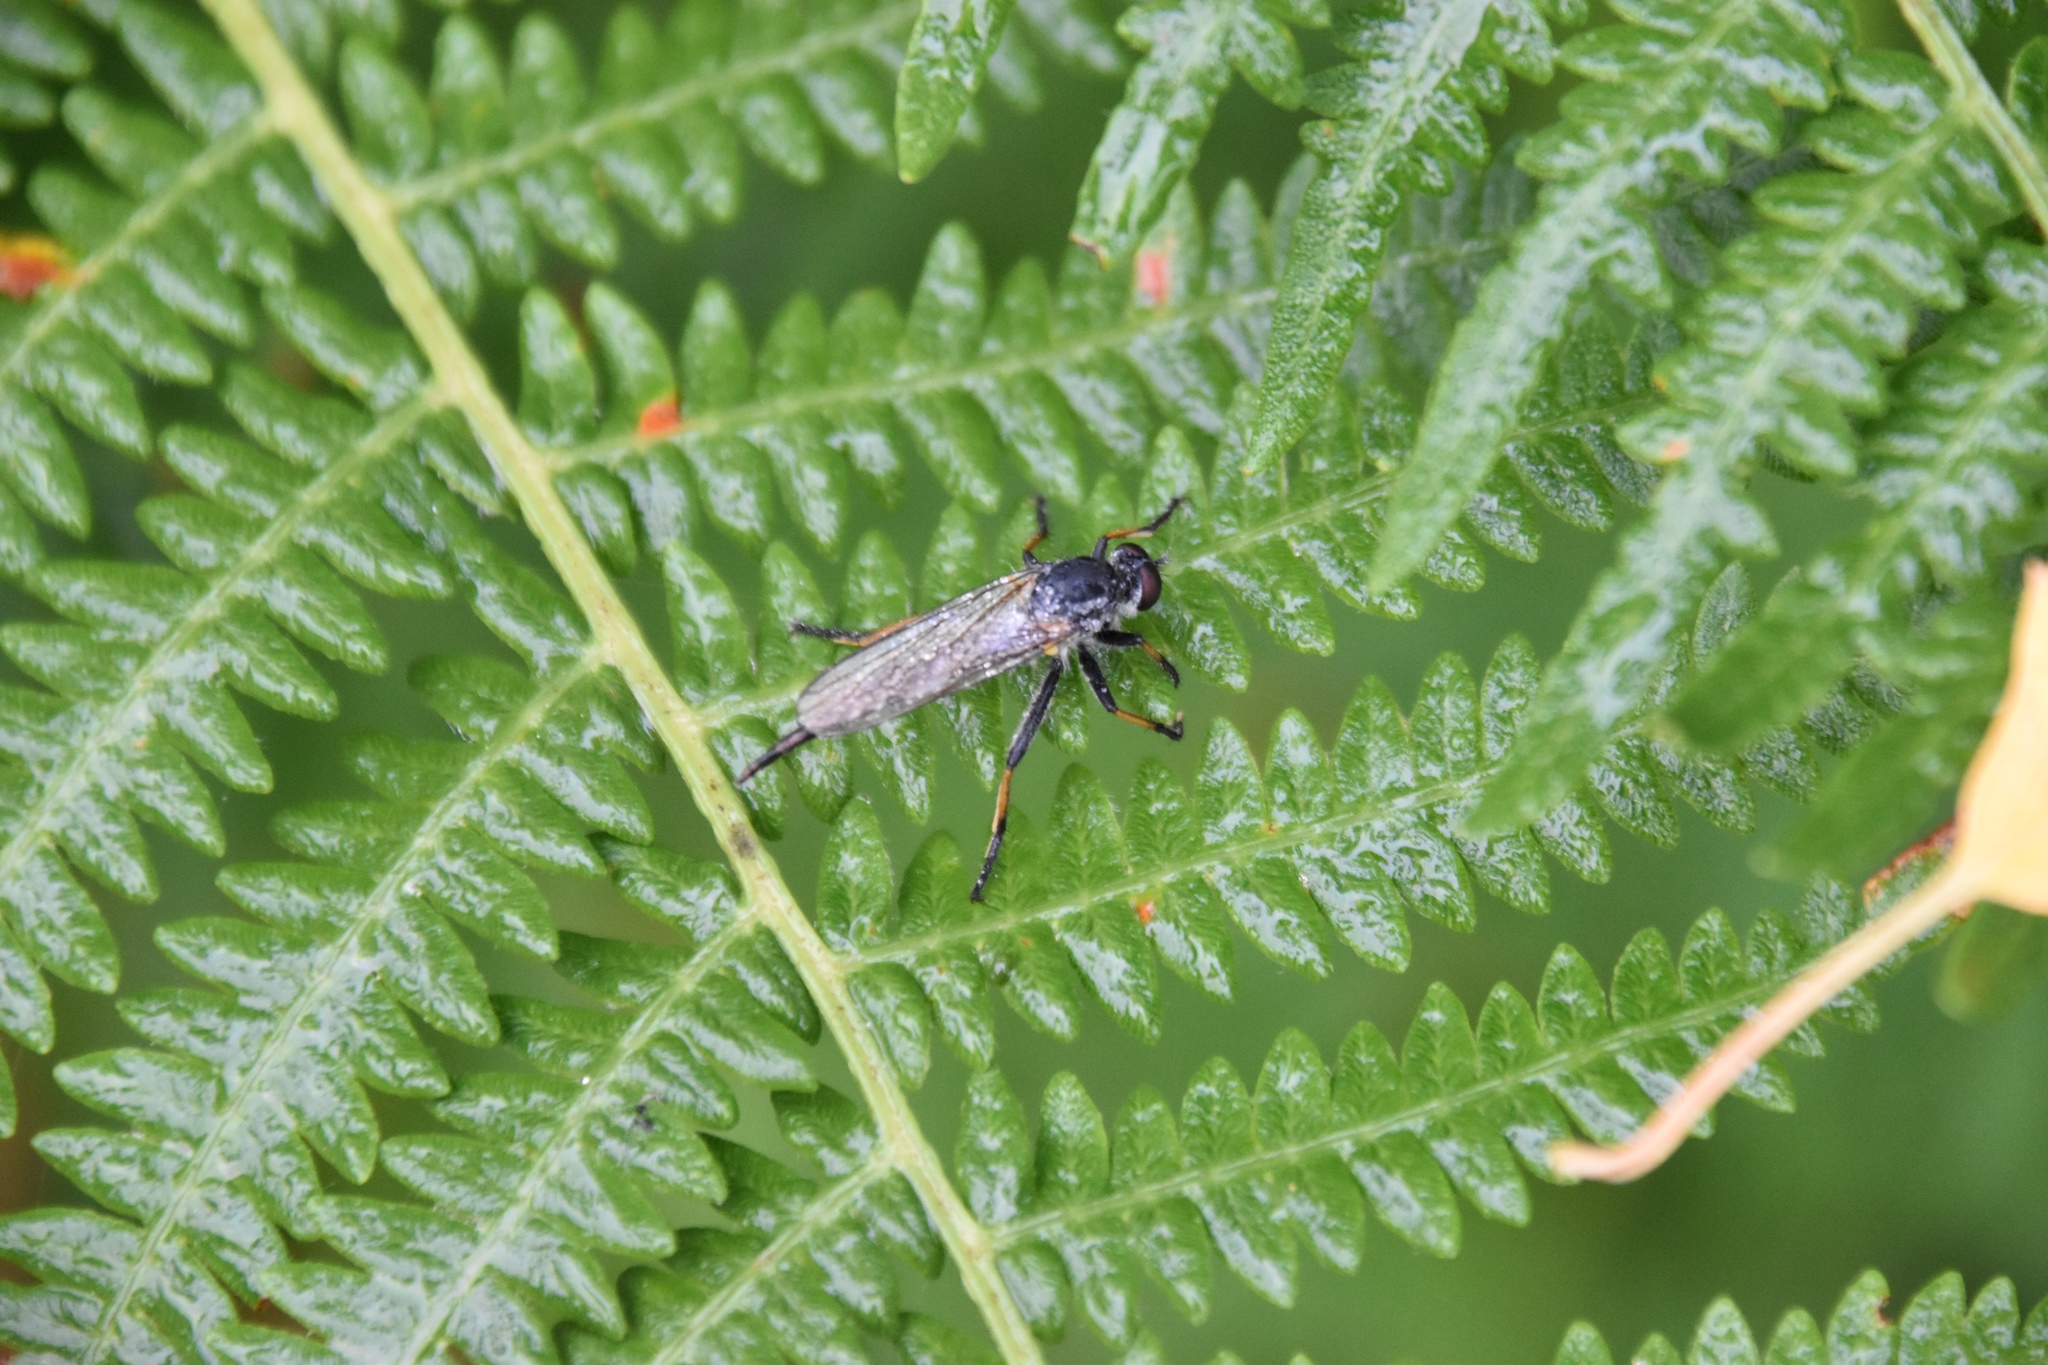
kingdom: Animalia
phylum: Arthropoda
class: Insecta
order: Diptera
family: Asilidae
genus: Neoitamus
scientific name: Neoitamus cyanurus
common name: Common awl robberfly
